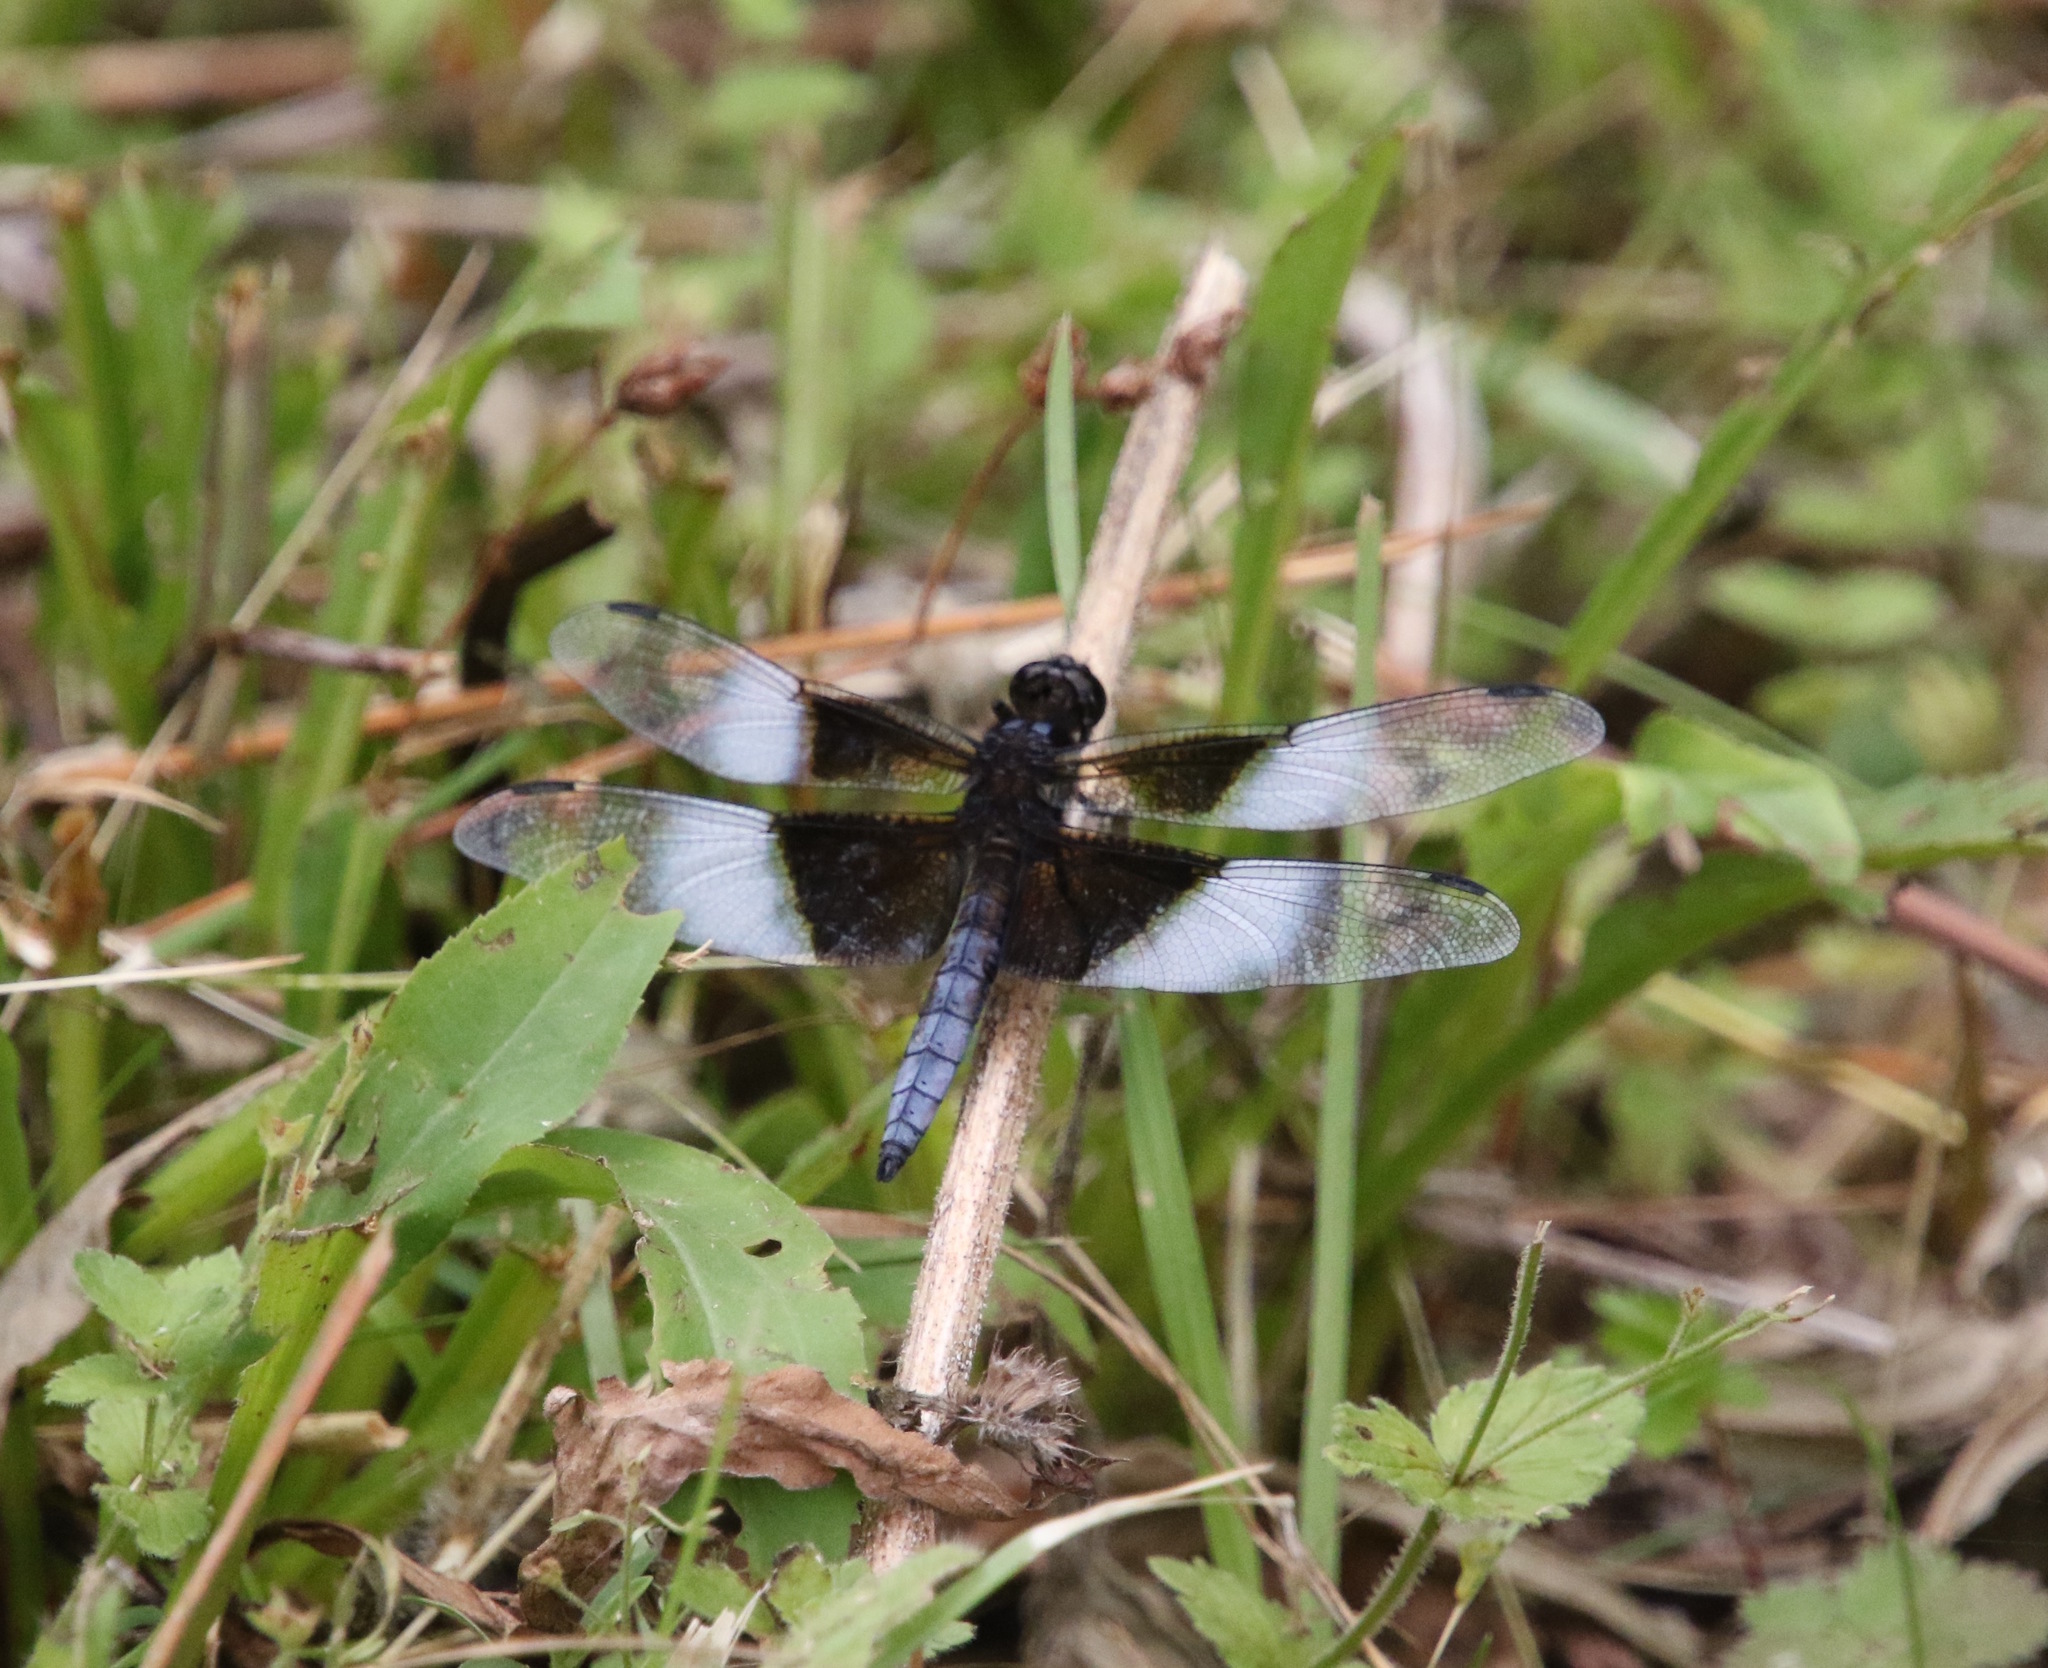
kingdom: Animalia
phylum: Arthropoda
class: Insecta
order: Odonata
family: Libellulidae
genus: Libellula
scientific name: Libellula luctuosa
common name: Widow skimmer
